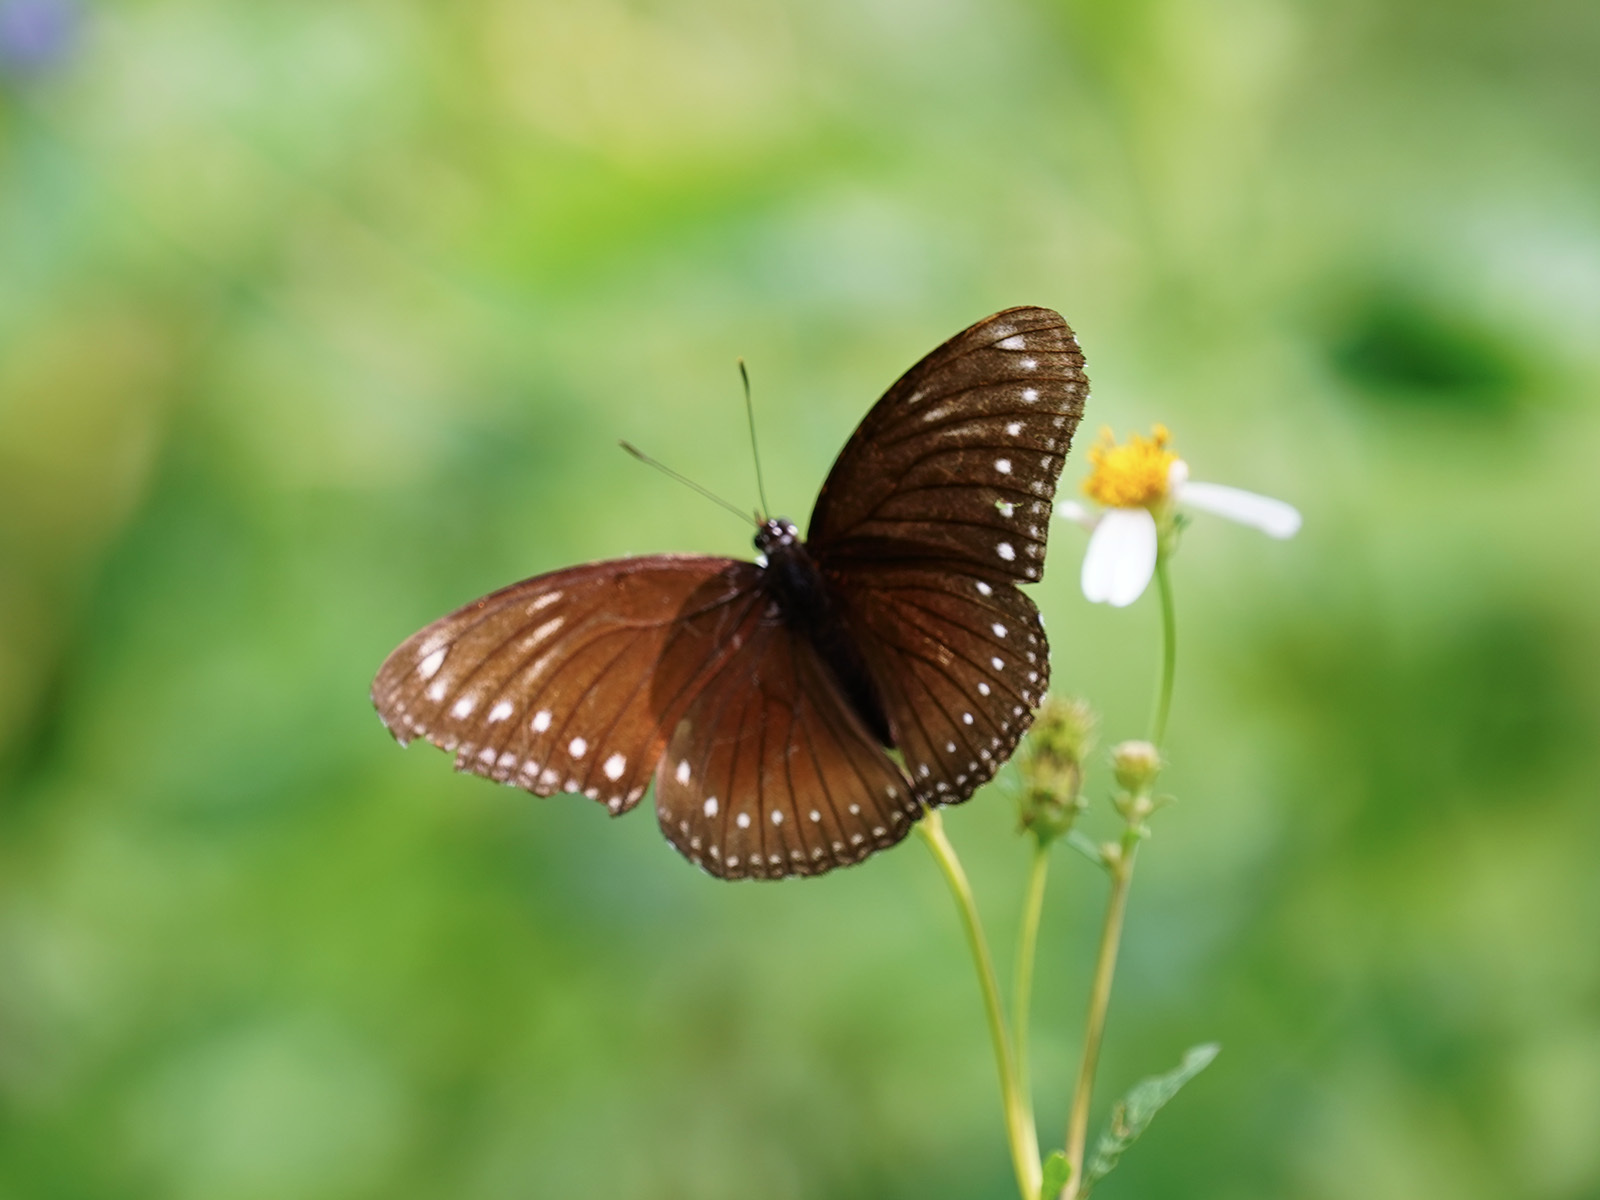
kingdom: Animalia
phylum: Arthropoda
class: Insecta
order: Lepidoptera
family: Nymphalidae
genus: Hypolimnas
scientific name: Hypolimnas anomala
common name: Malayan eggfly
